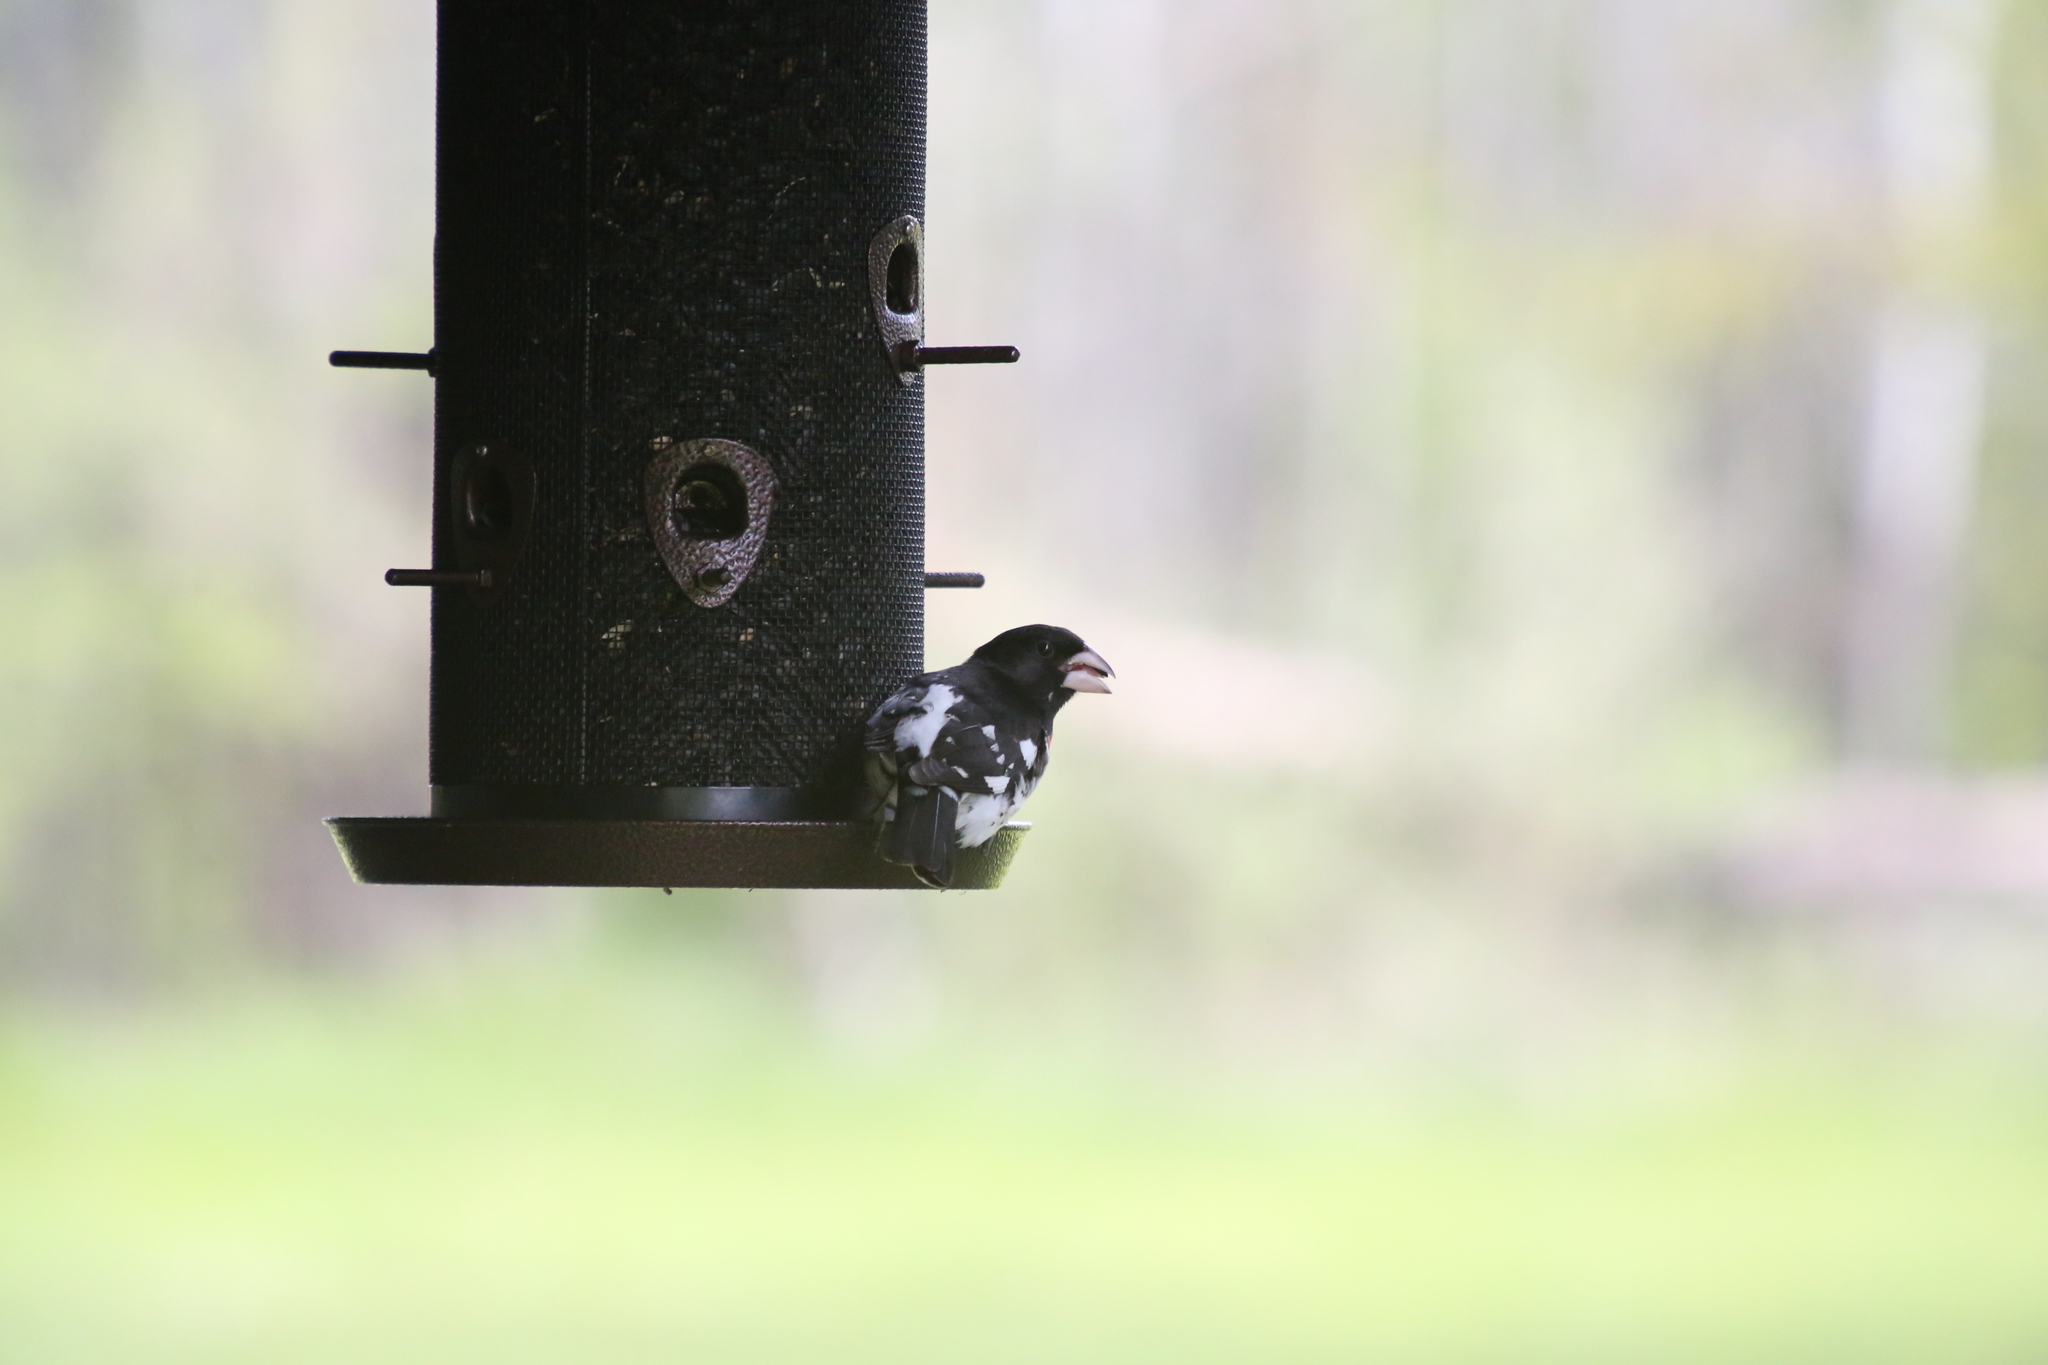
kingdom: Animalia
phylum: Chordata
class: Aves
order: Passeriformes
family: Cardinalidae
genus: Pheucticus
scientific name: Pheucticus ludovicianus
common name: Rose-breasted grosbeak
